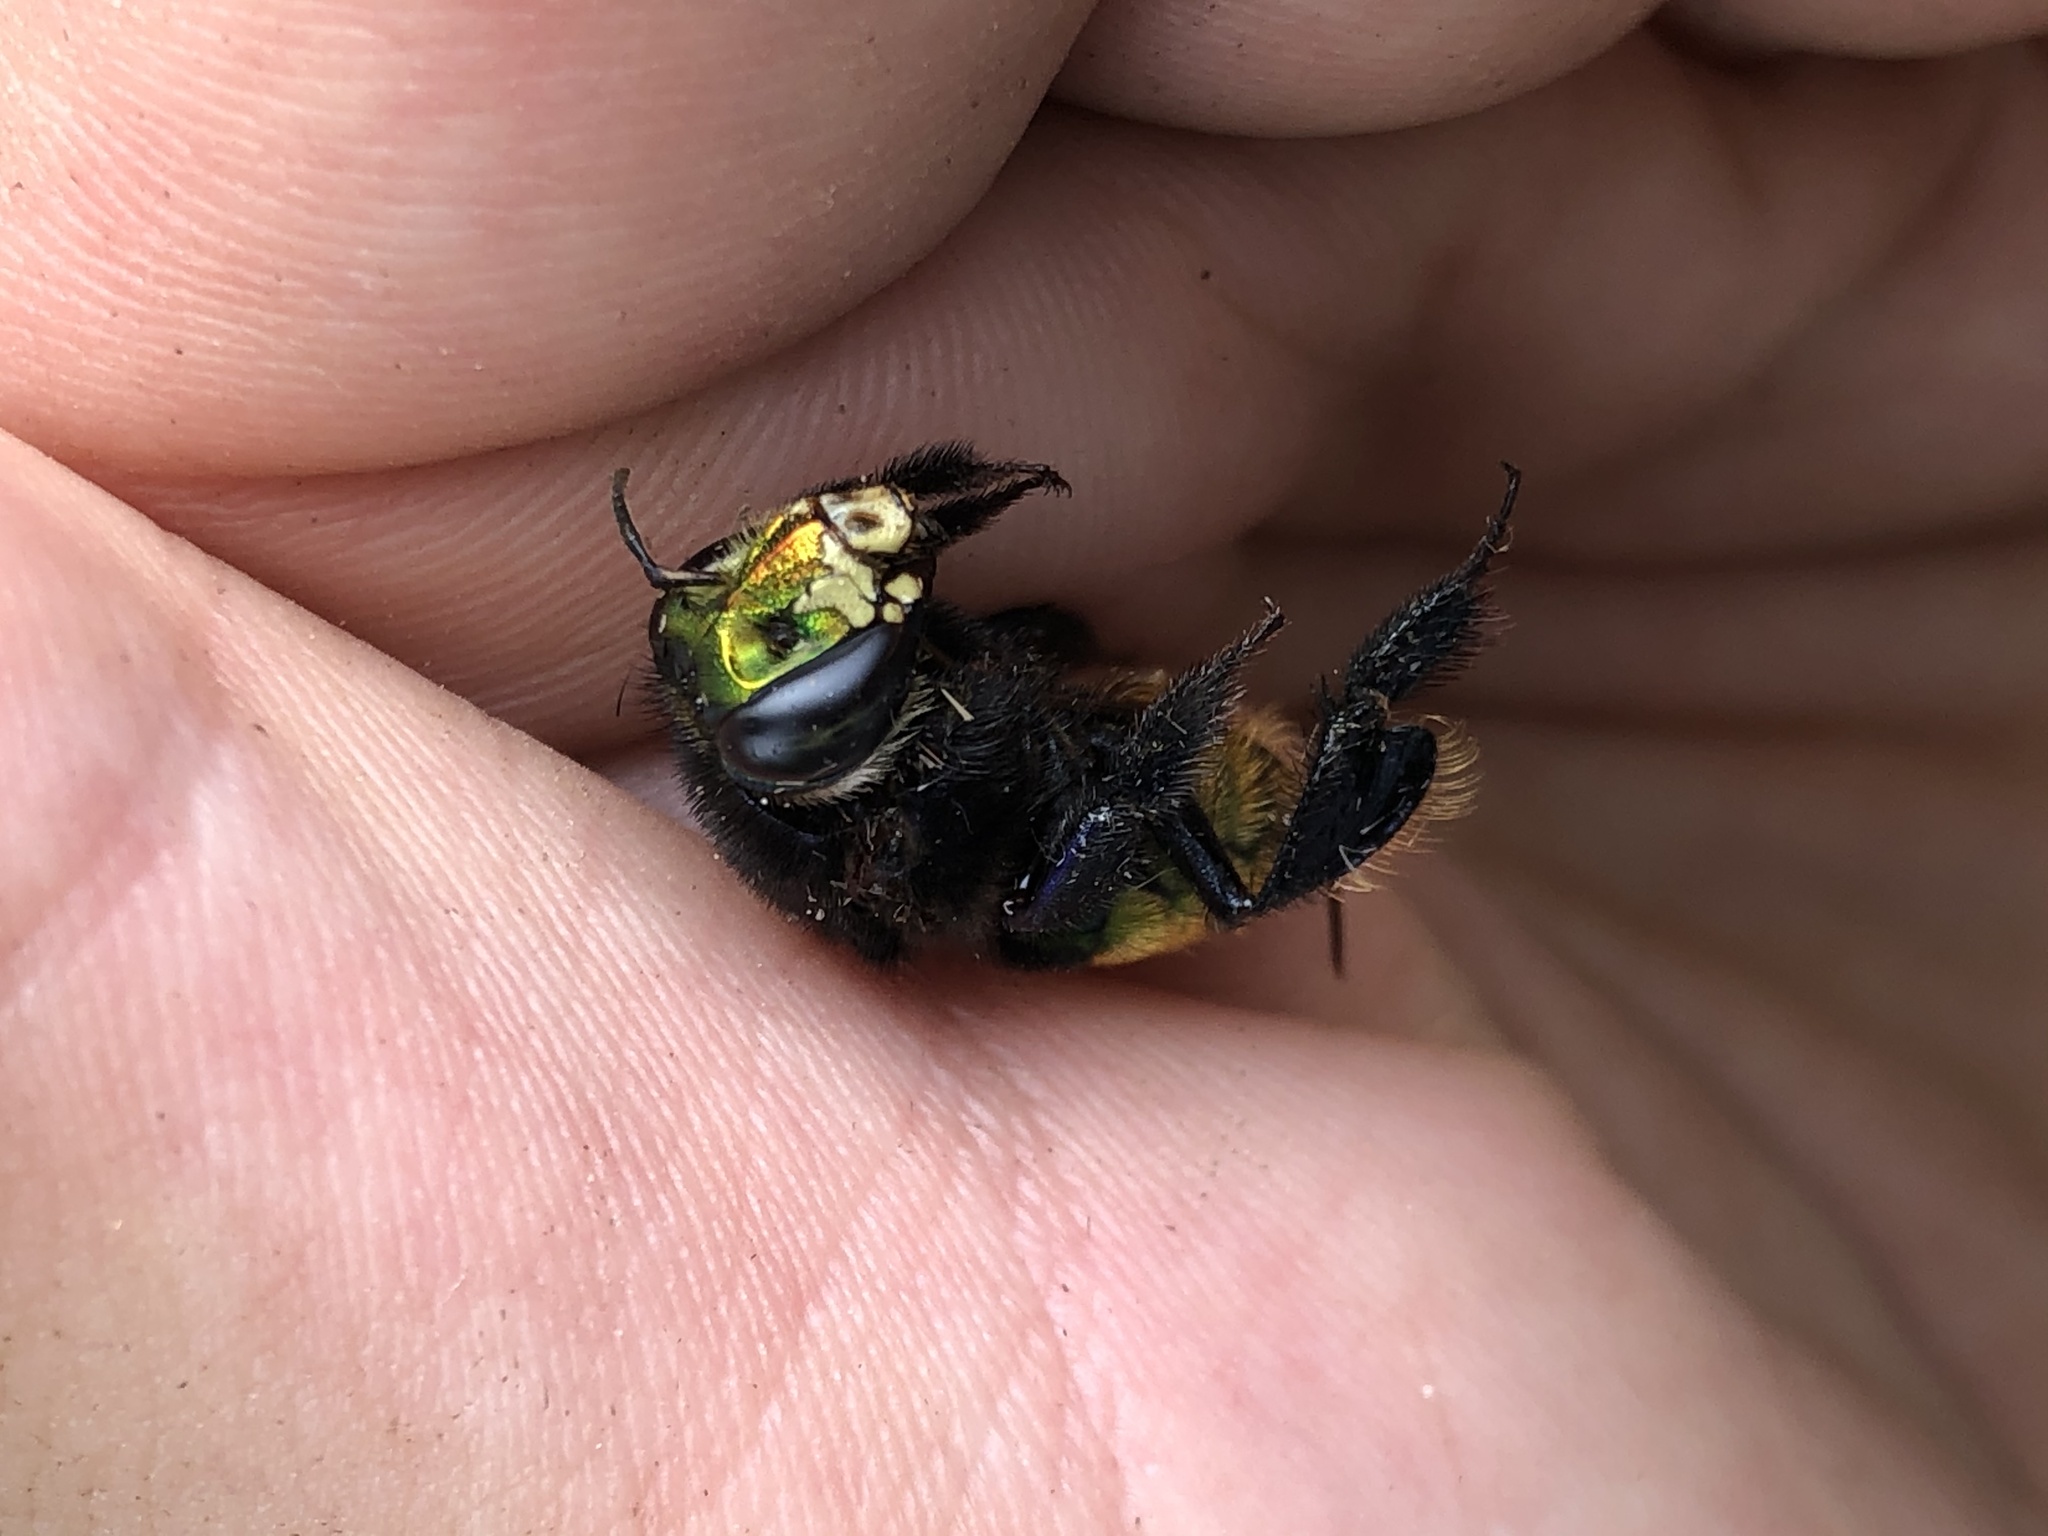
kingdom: Animalia
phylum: Arthropoda
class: Insecta
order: Hymenoptera
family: Apidae
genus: Euglossa
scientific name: Euglossa intersecta
